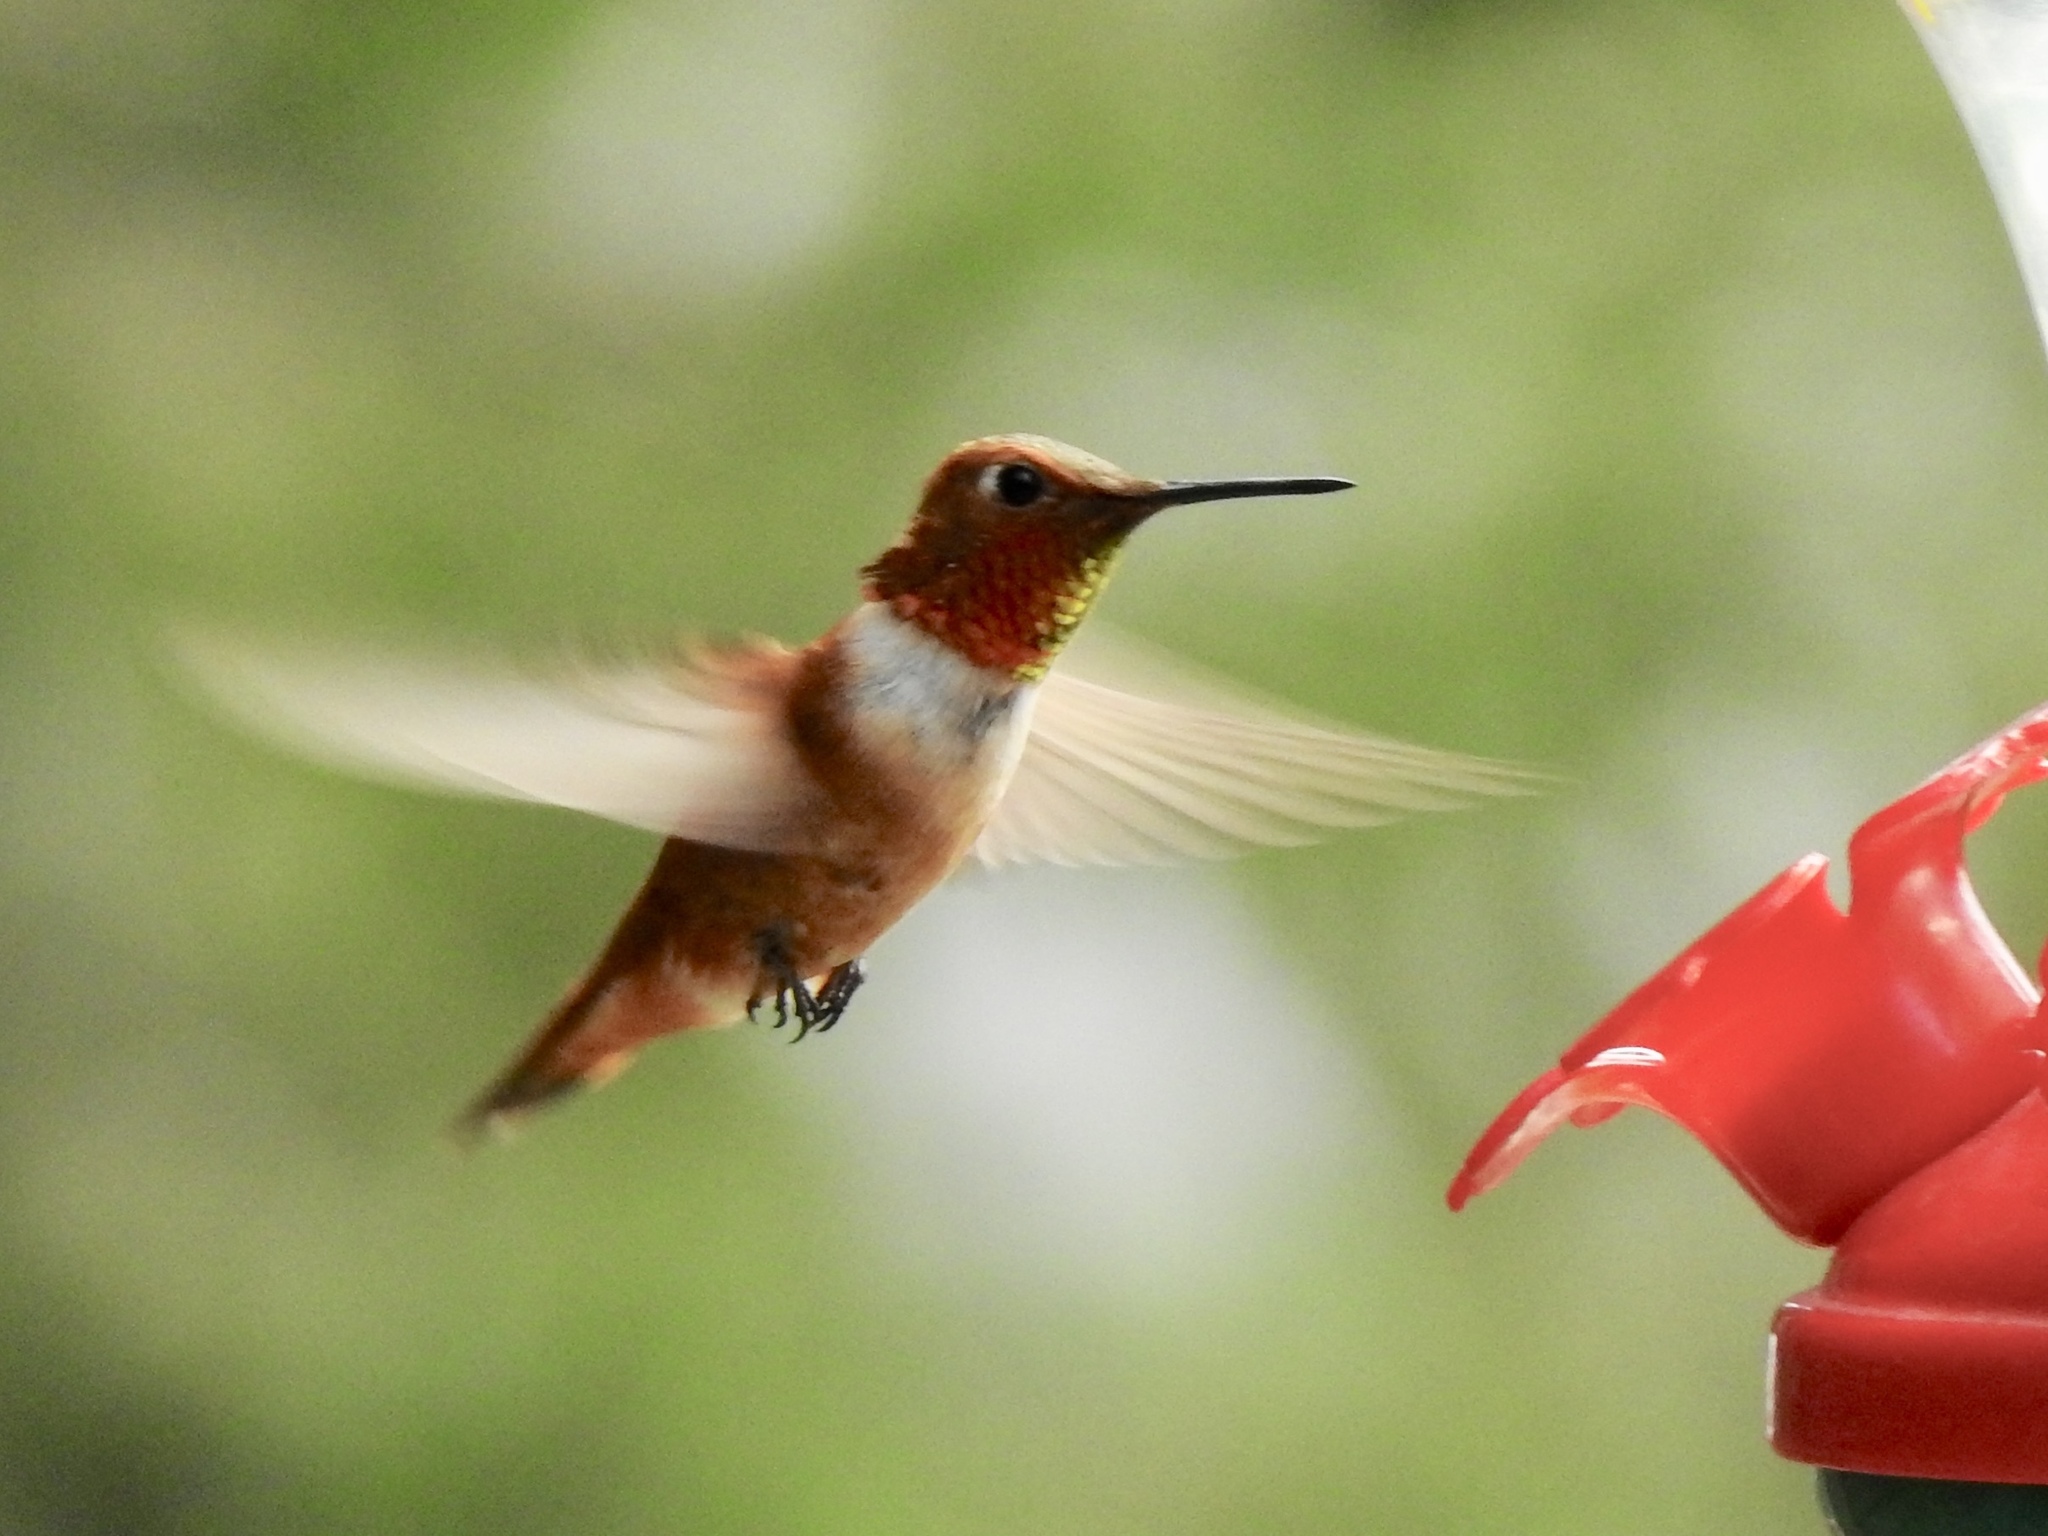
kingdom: Animalia
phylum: Chordata
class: Aves
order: Apodiformes
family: Trochilidae
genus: Selasphorus
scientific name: Selasphorus rufus
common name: Rufous hummingbird
